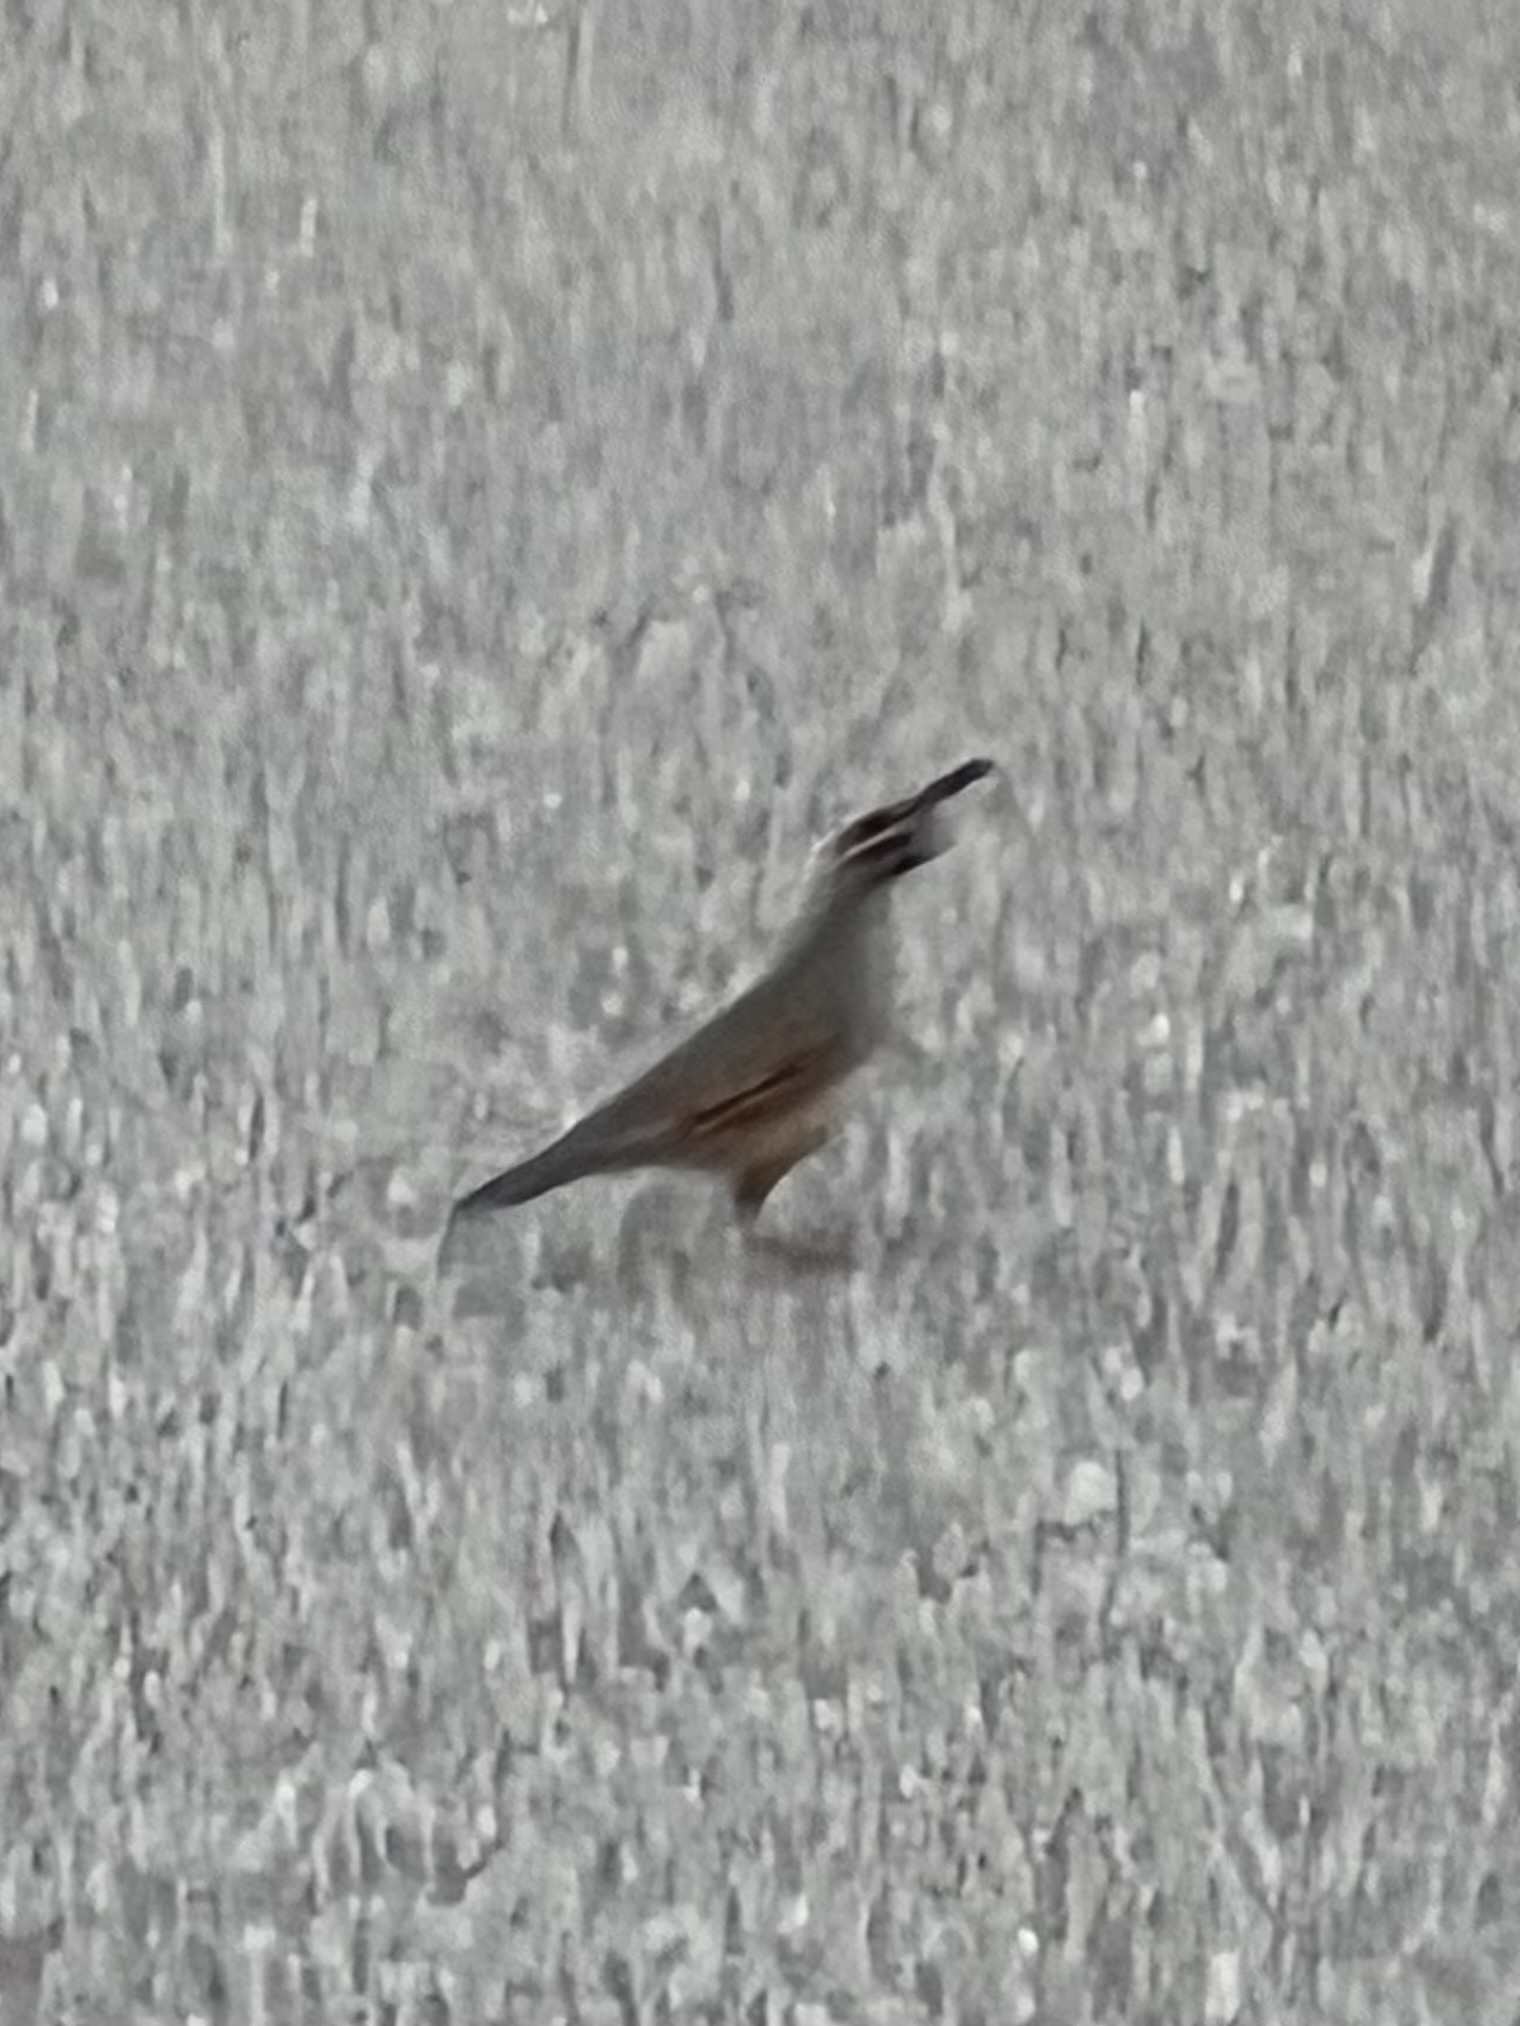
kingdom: Animalia
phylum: Chordata
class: Aves
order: Galliformes
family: Odontophoridae
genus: Callipepla
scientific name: Callipepla gambelii
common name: Gambel's quail
